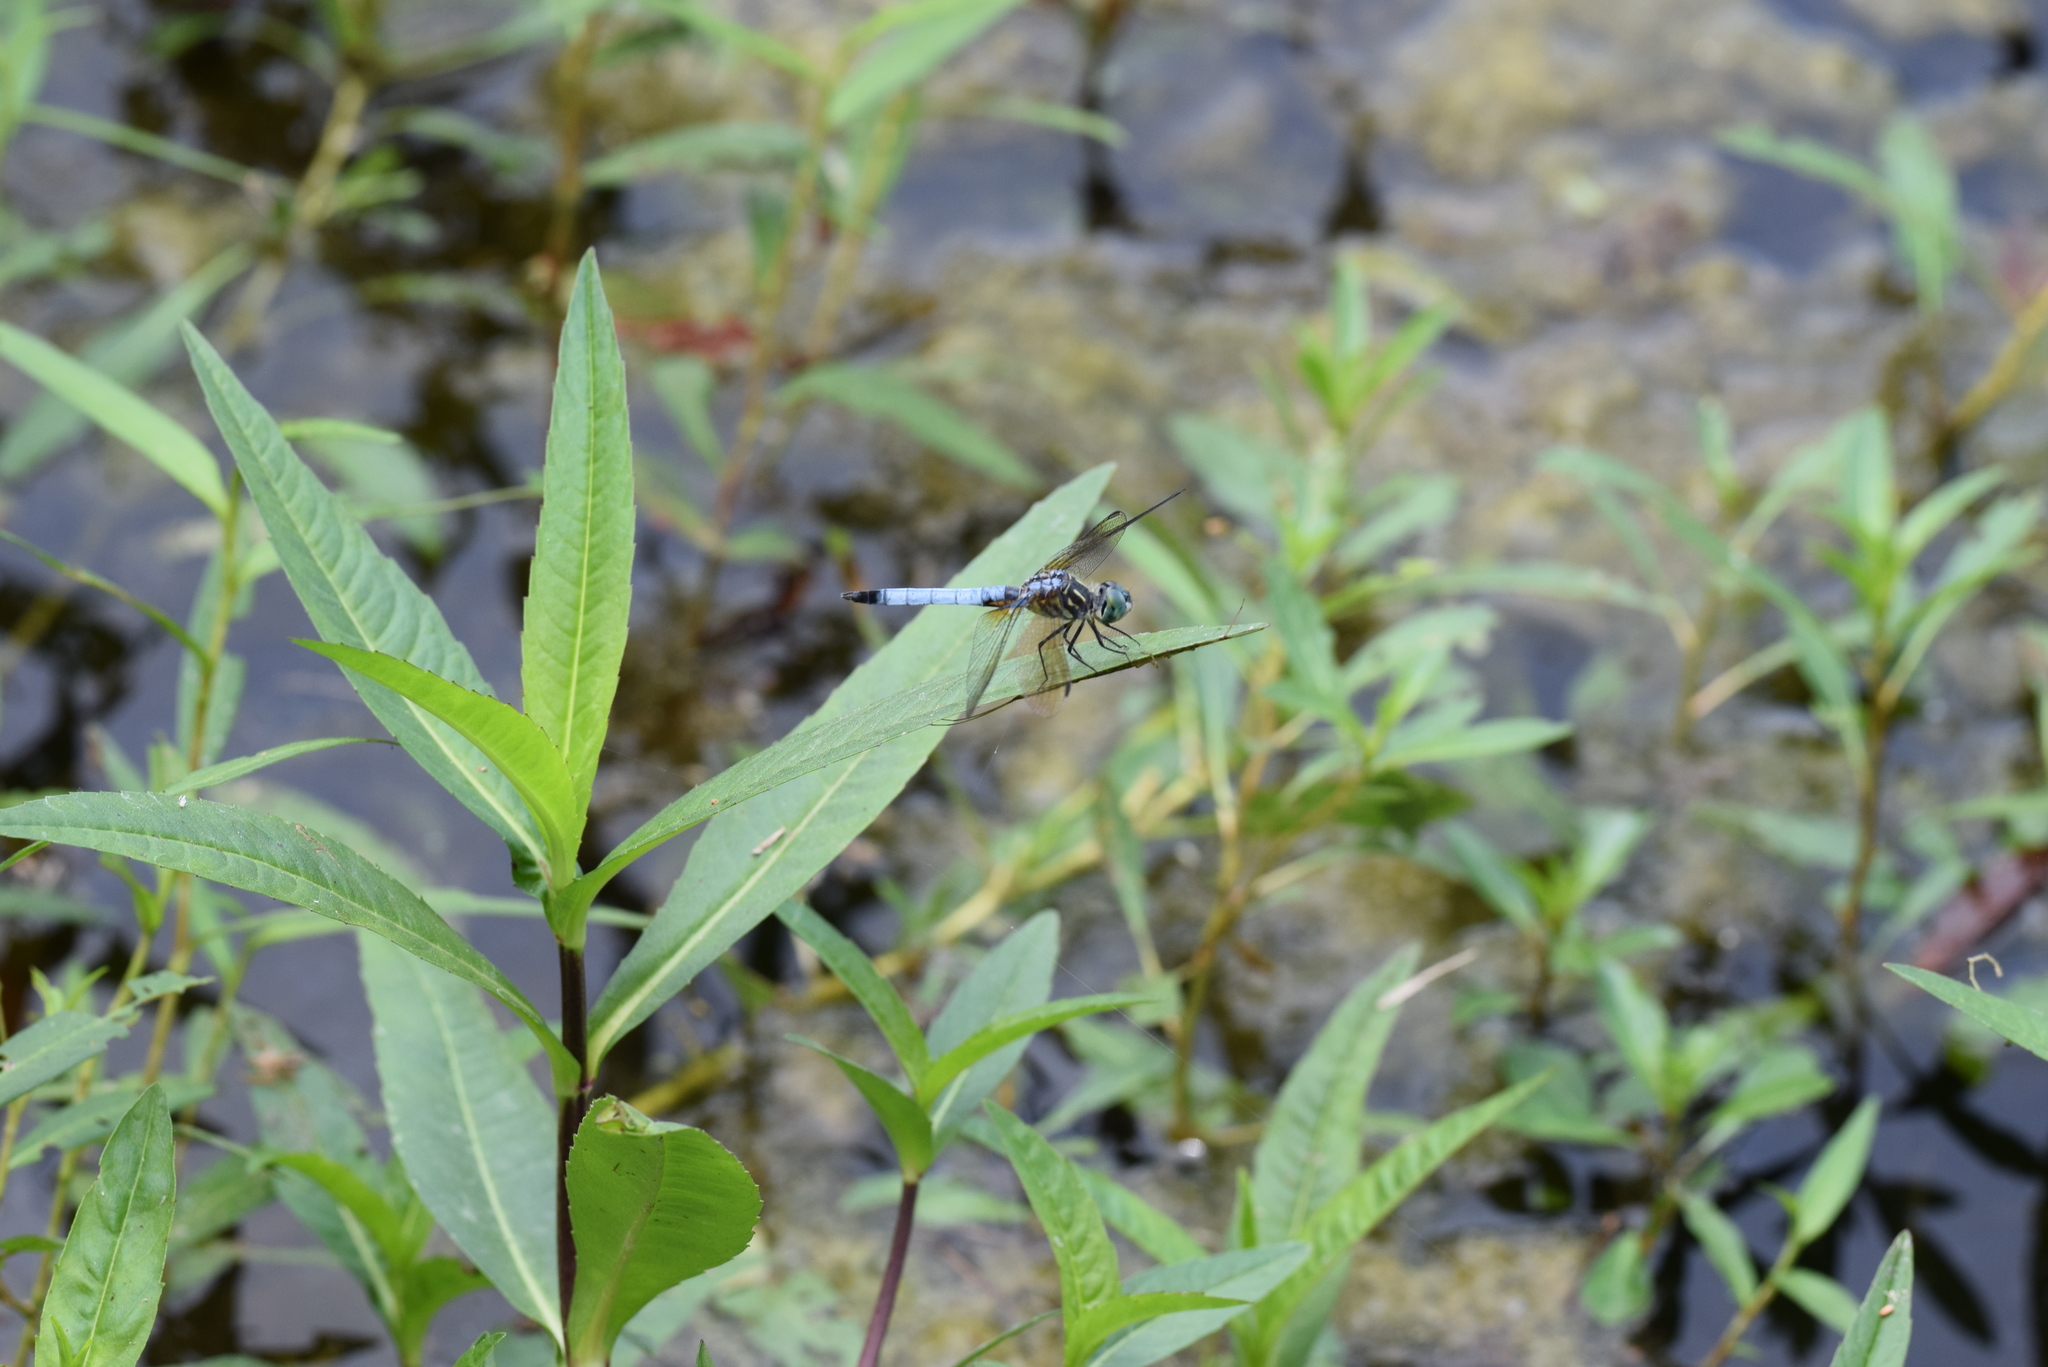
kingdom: Animalia
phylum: Arthropoda
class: Insecta
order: Odonata
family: Libellulidae
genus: Pachydiplax
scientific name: Pachydiplax longipennis
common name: Blue dasher
